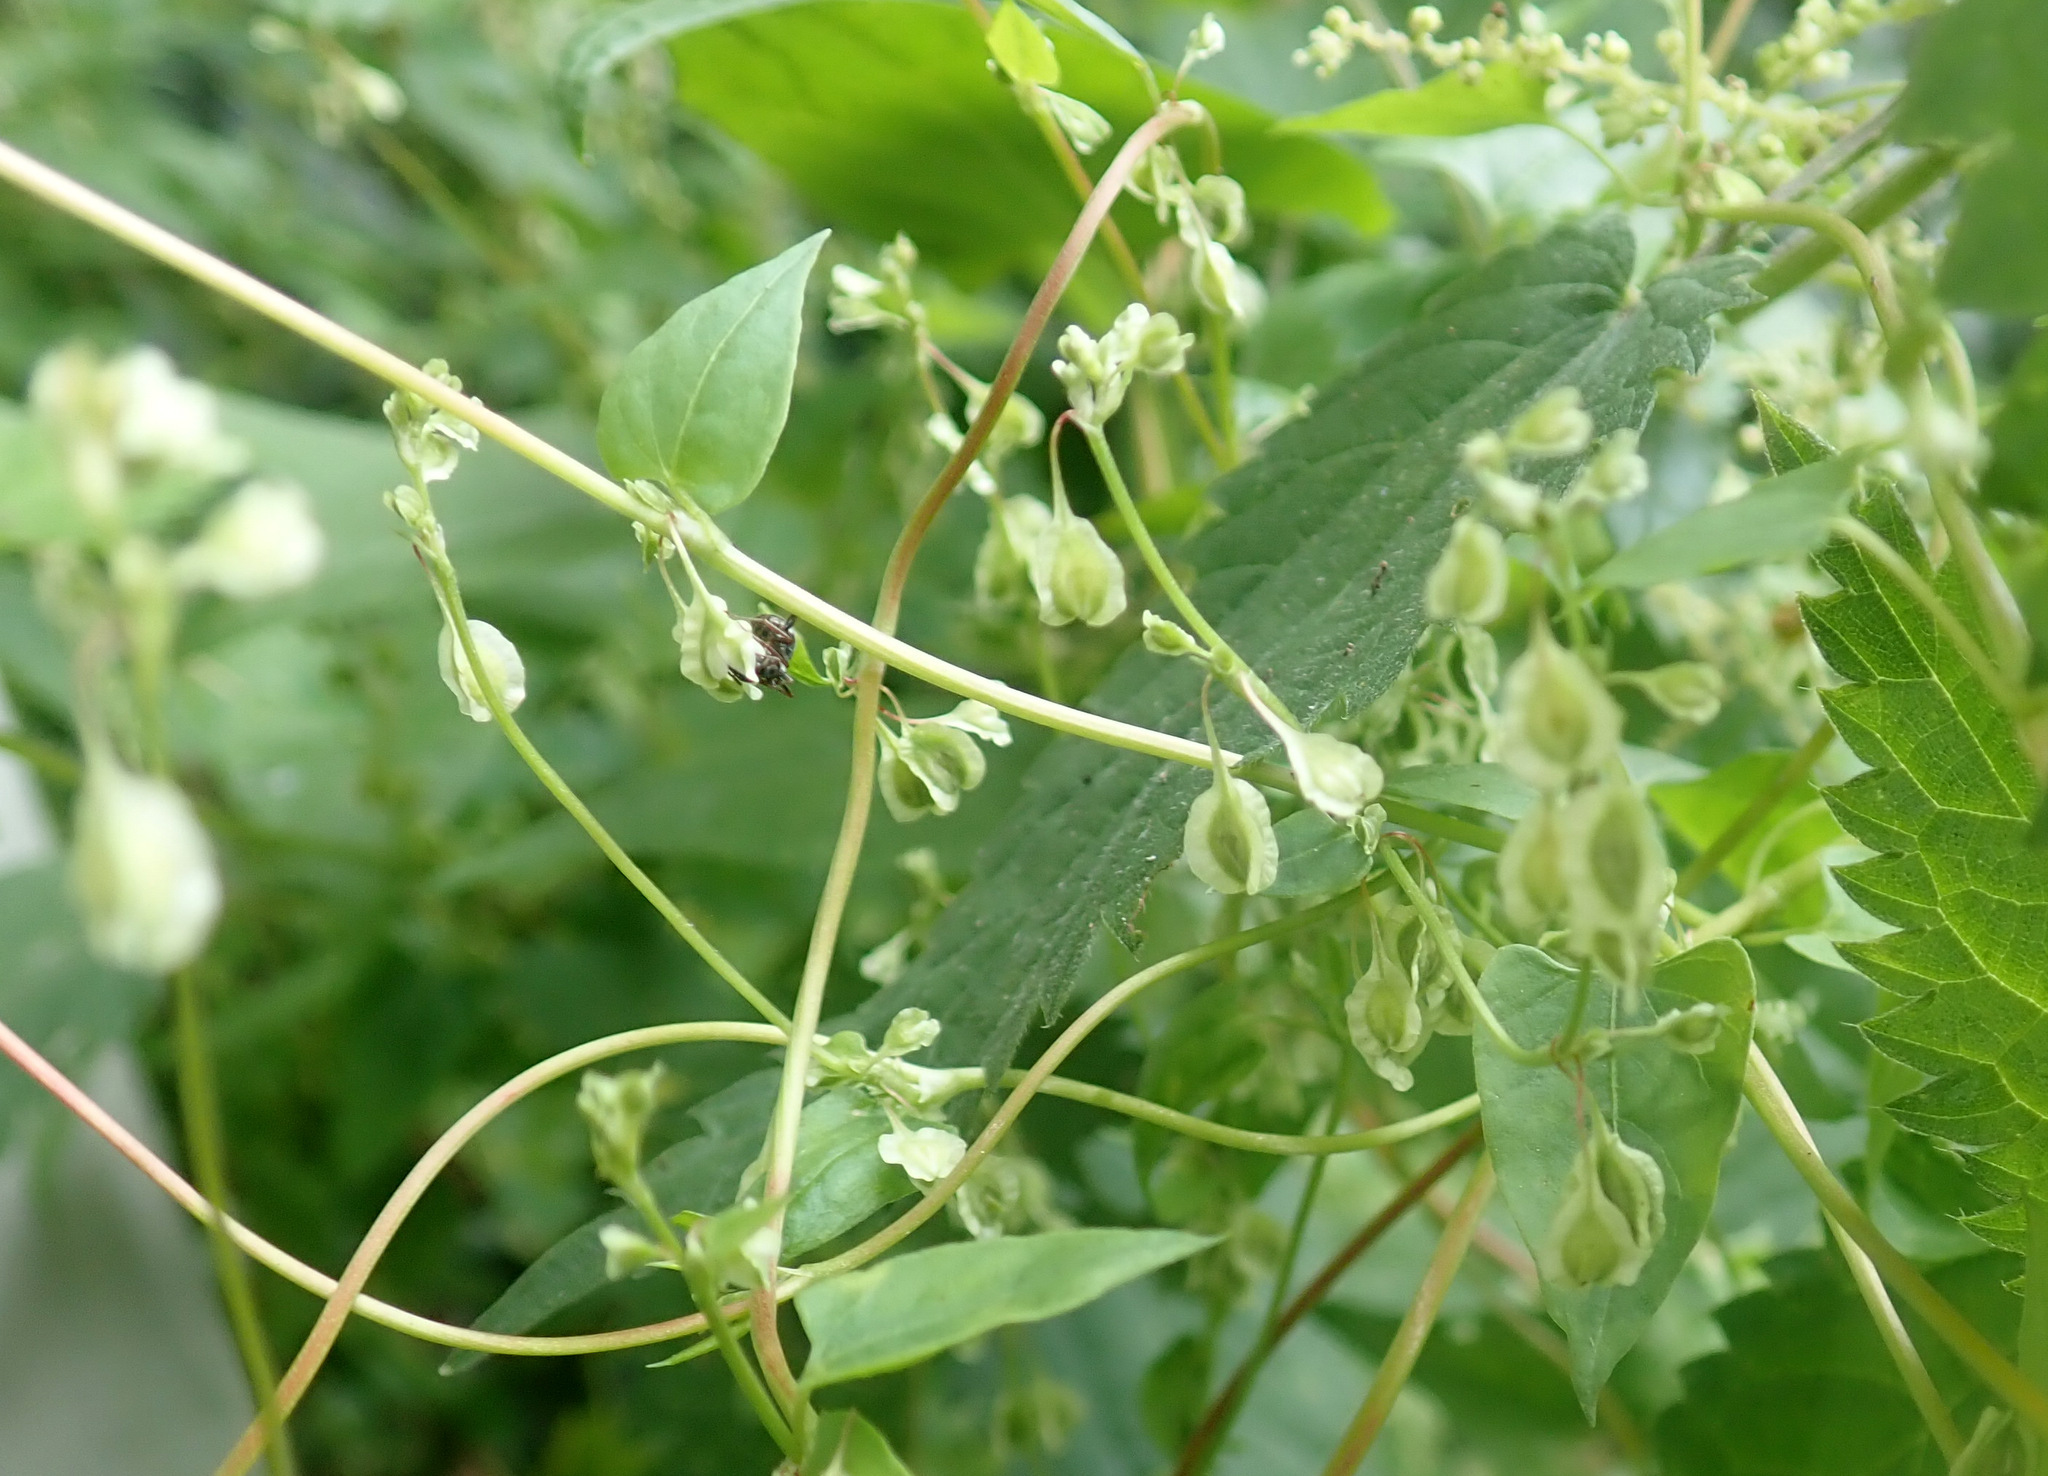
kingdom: Plantae
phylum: Tracheophyta
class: Magnoliopsida
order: Caryophyllales
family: Polygonaceae
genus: Fallopia
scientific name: Fallopia dumetorum
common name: Copse-bindweed
